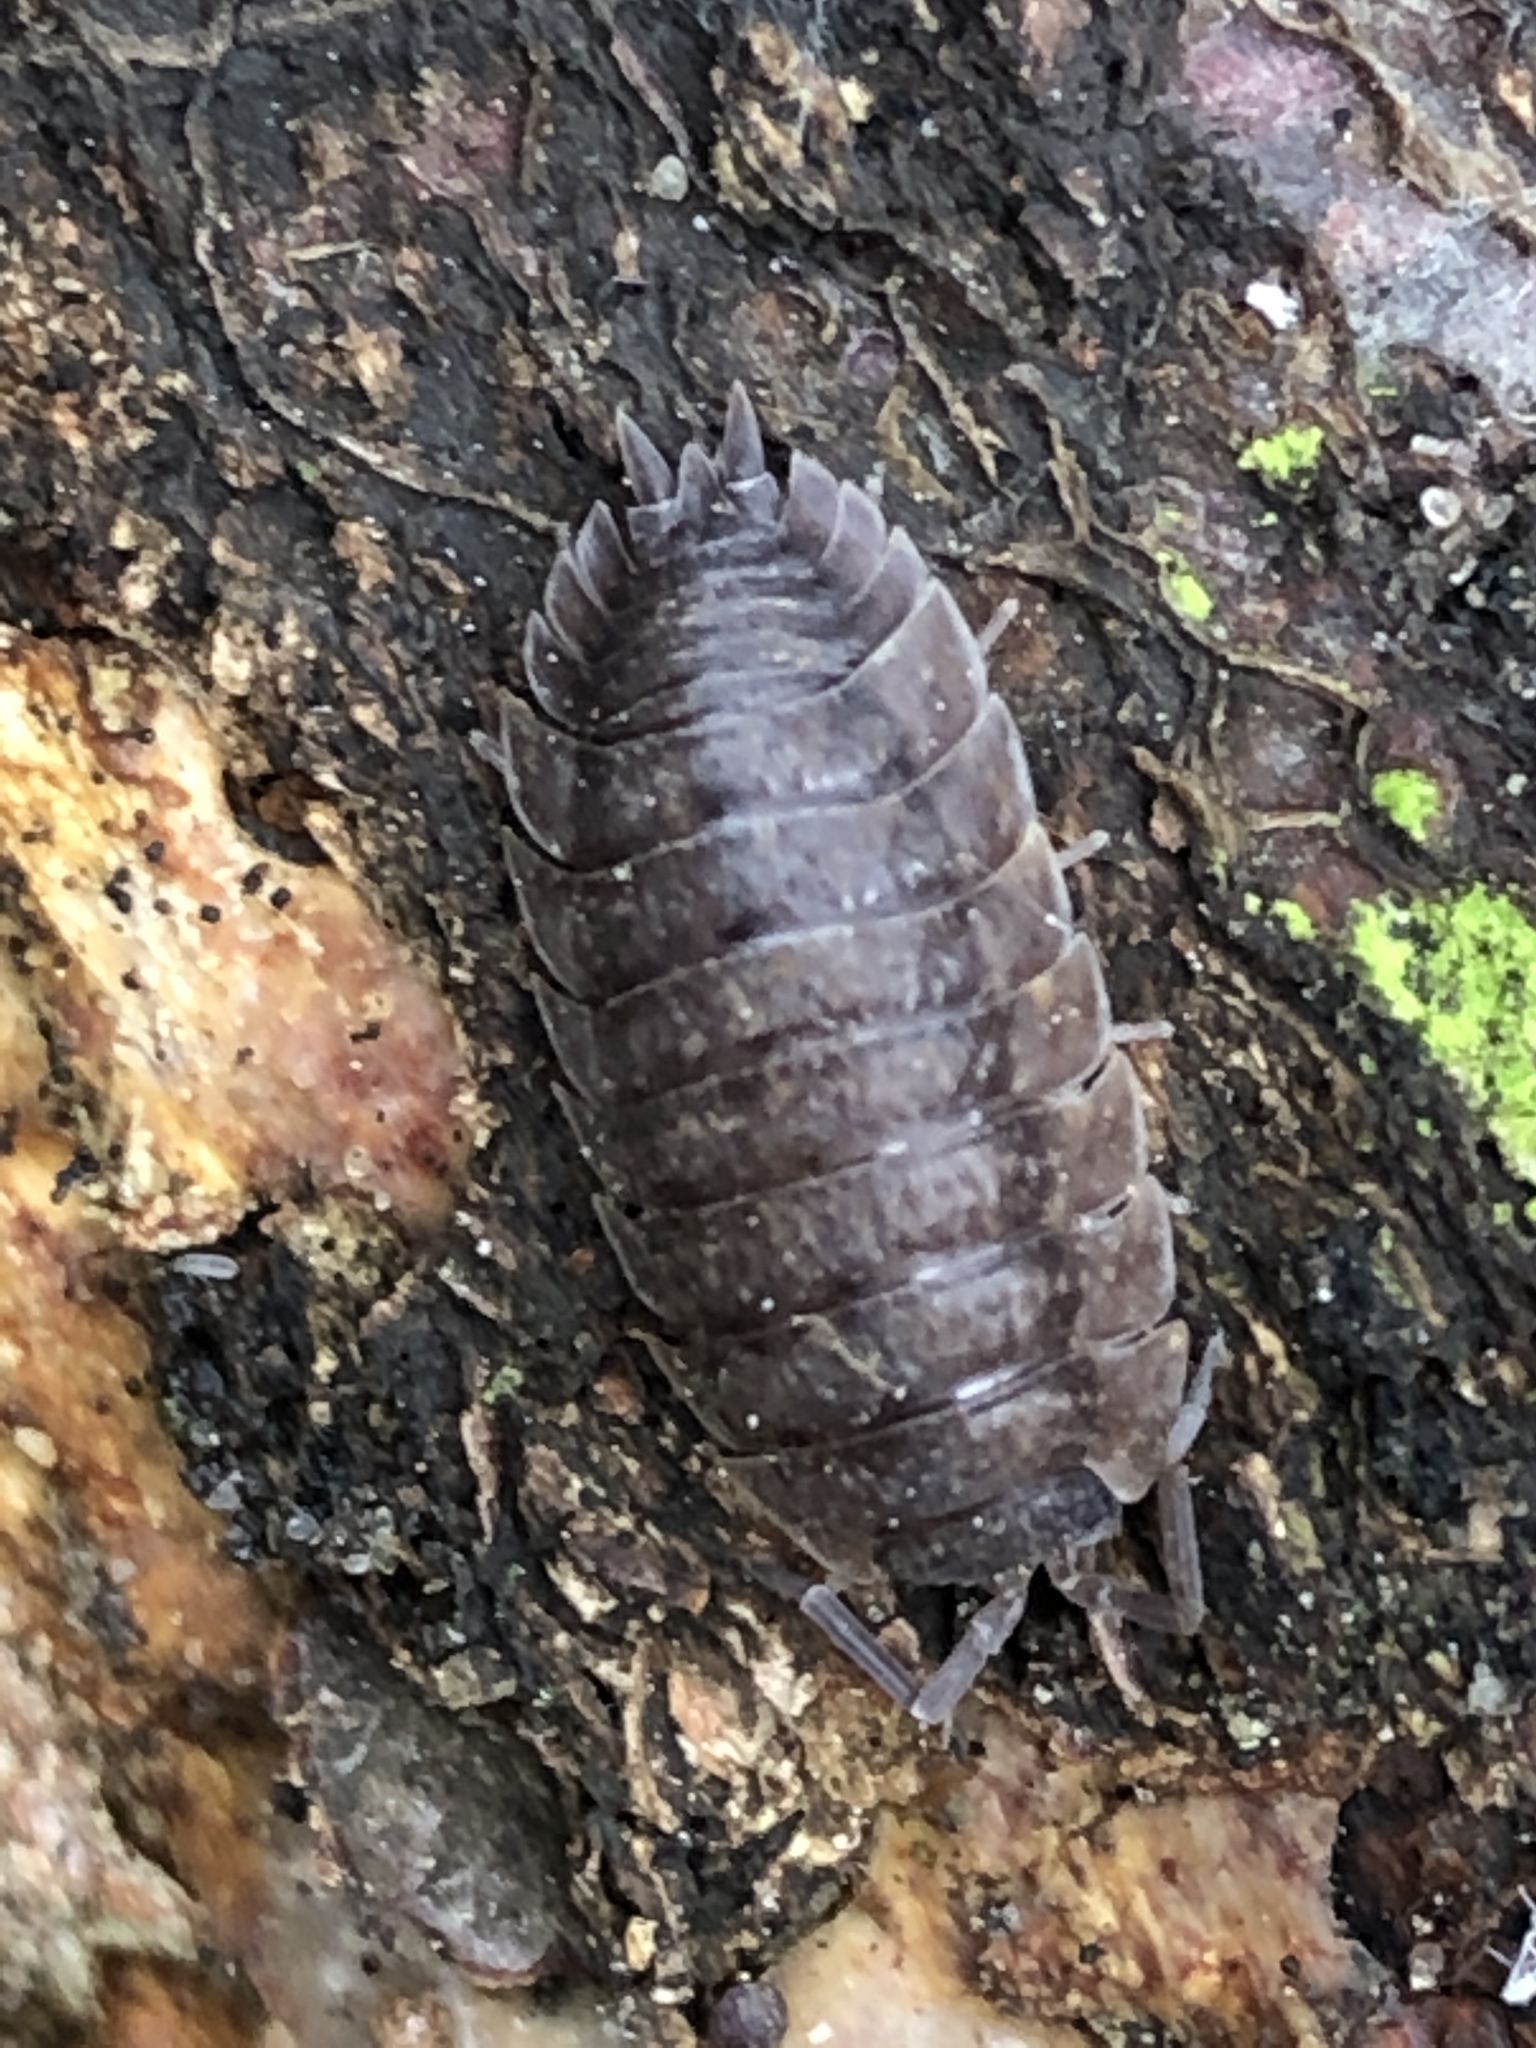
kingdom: Animalia
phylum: Arthropoda
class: Malacostraca
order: Isopoda
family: Porcellionidae
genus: Porcellio
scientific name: Porcellio scaber
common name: Common rough woodlouse
